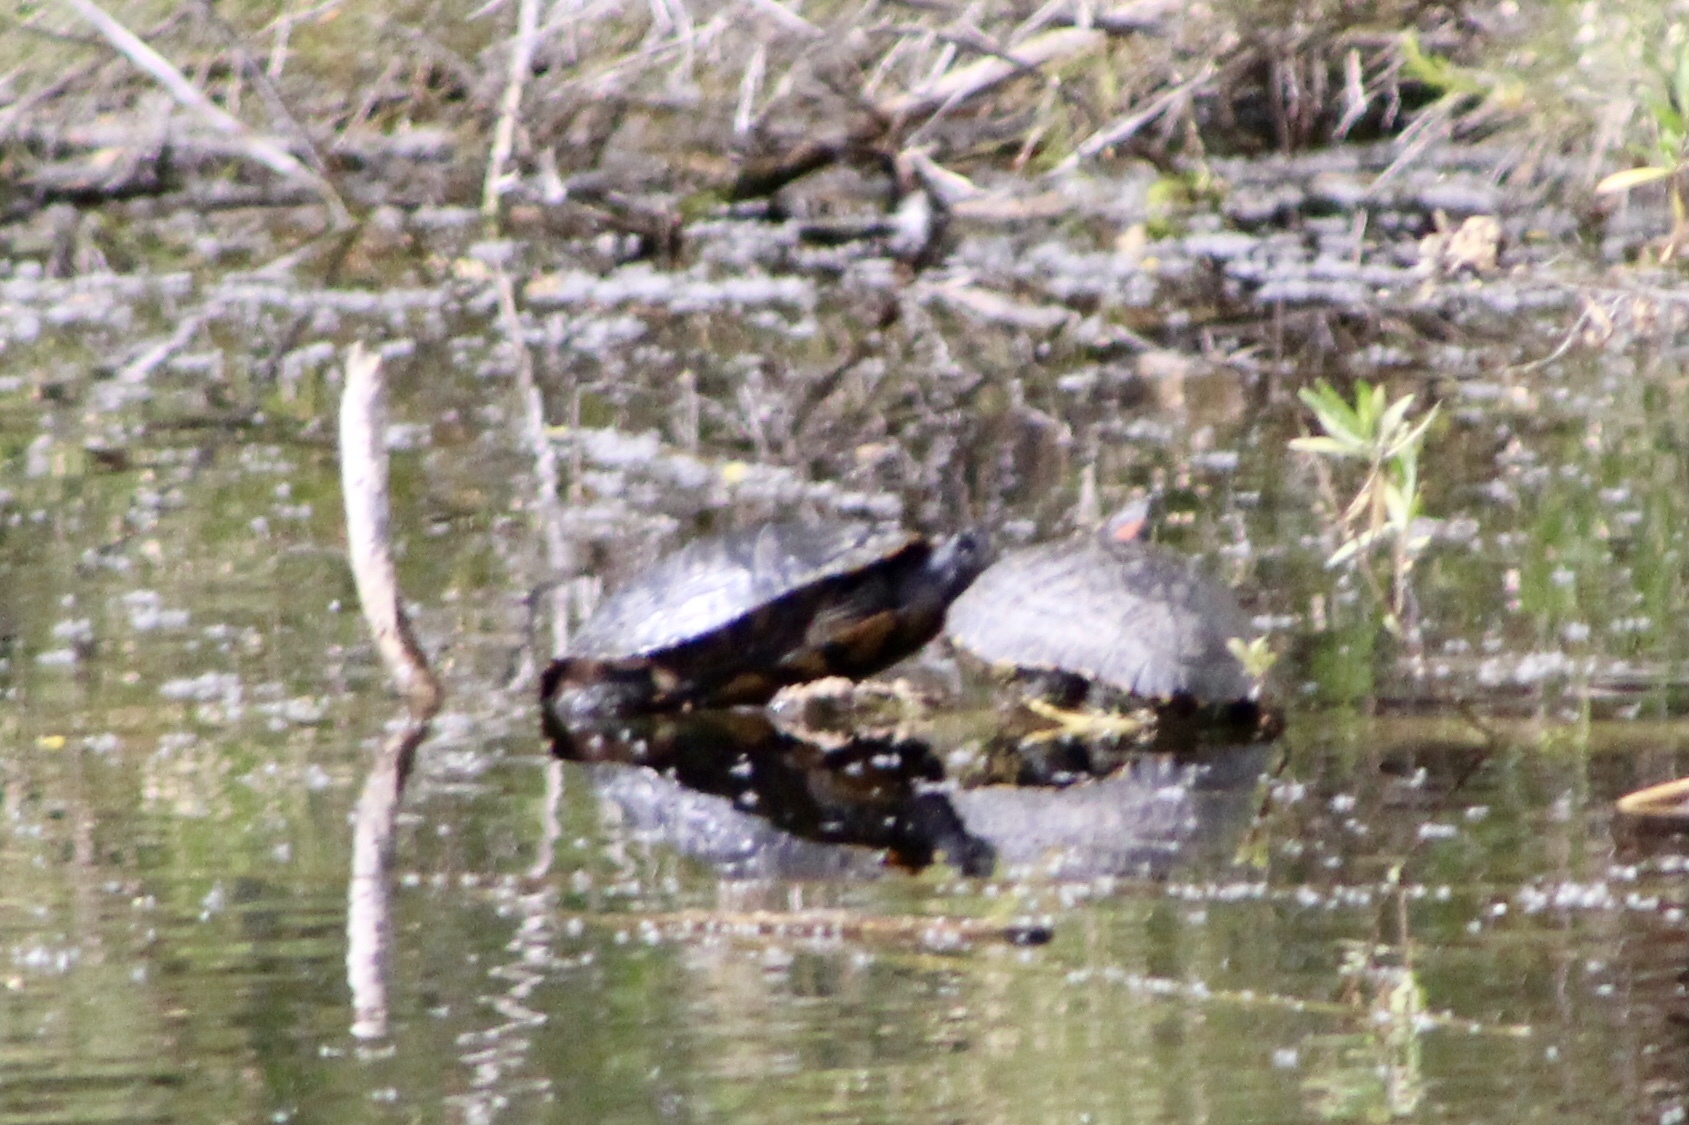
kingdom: Animalia
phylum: Chordata
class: Testudines
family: Emydidae
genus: Trachemys
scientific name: Trachemys scripta
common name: Slider
